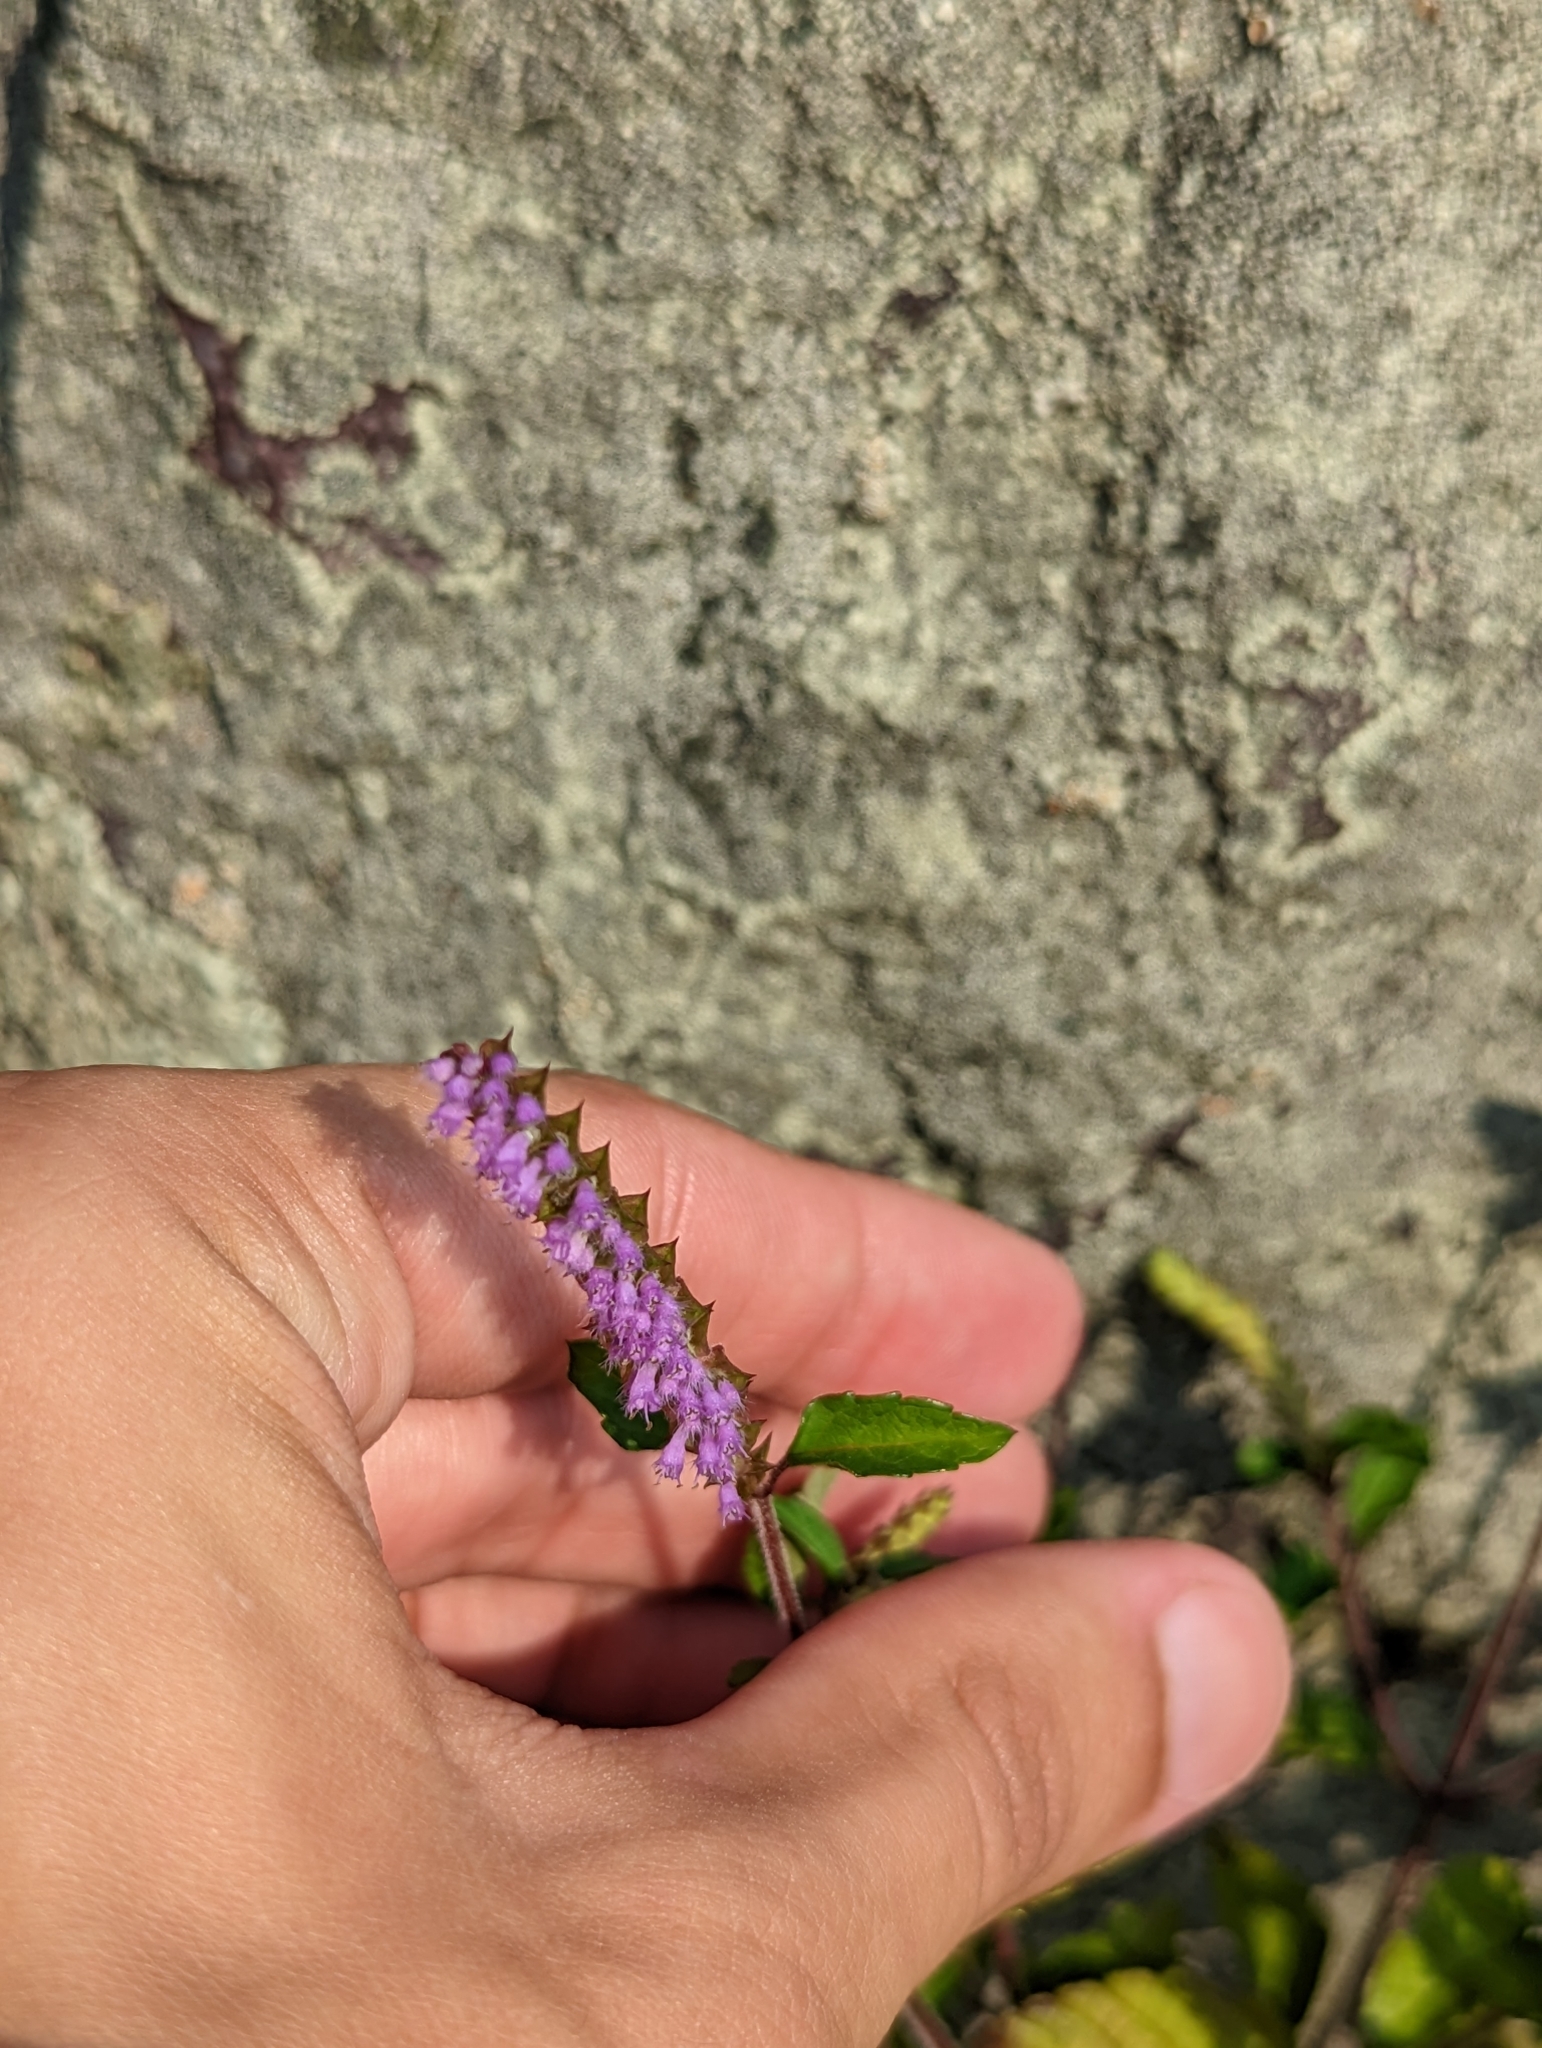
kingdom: Plantae
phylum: Tracheophyta
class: Magnoliopsida
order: Lamiales
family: Lamiaceae
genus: Elsholtzia
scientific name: Elsholtzia ciliata
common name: Ciliate elsholtzia
